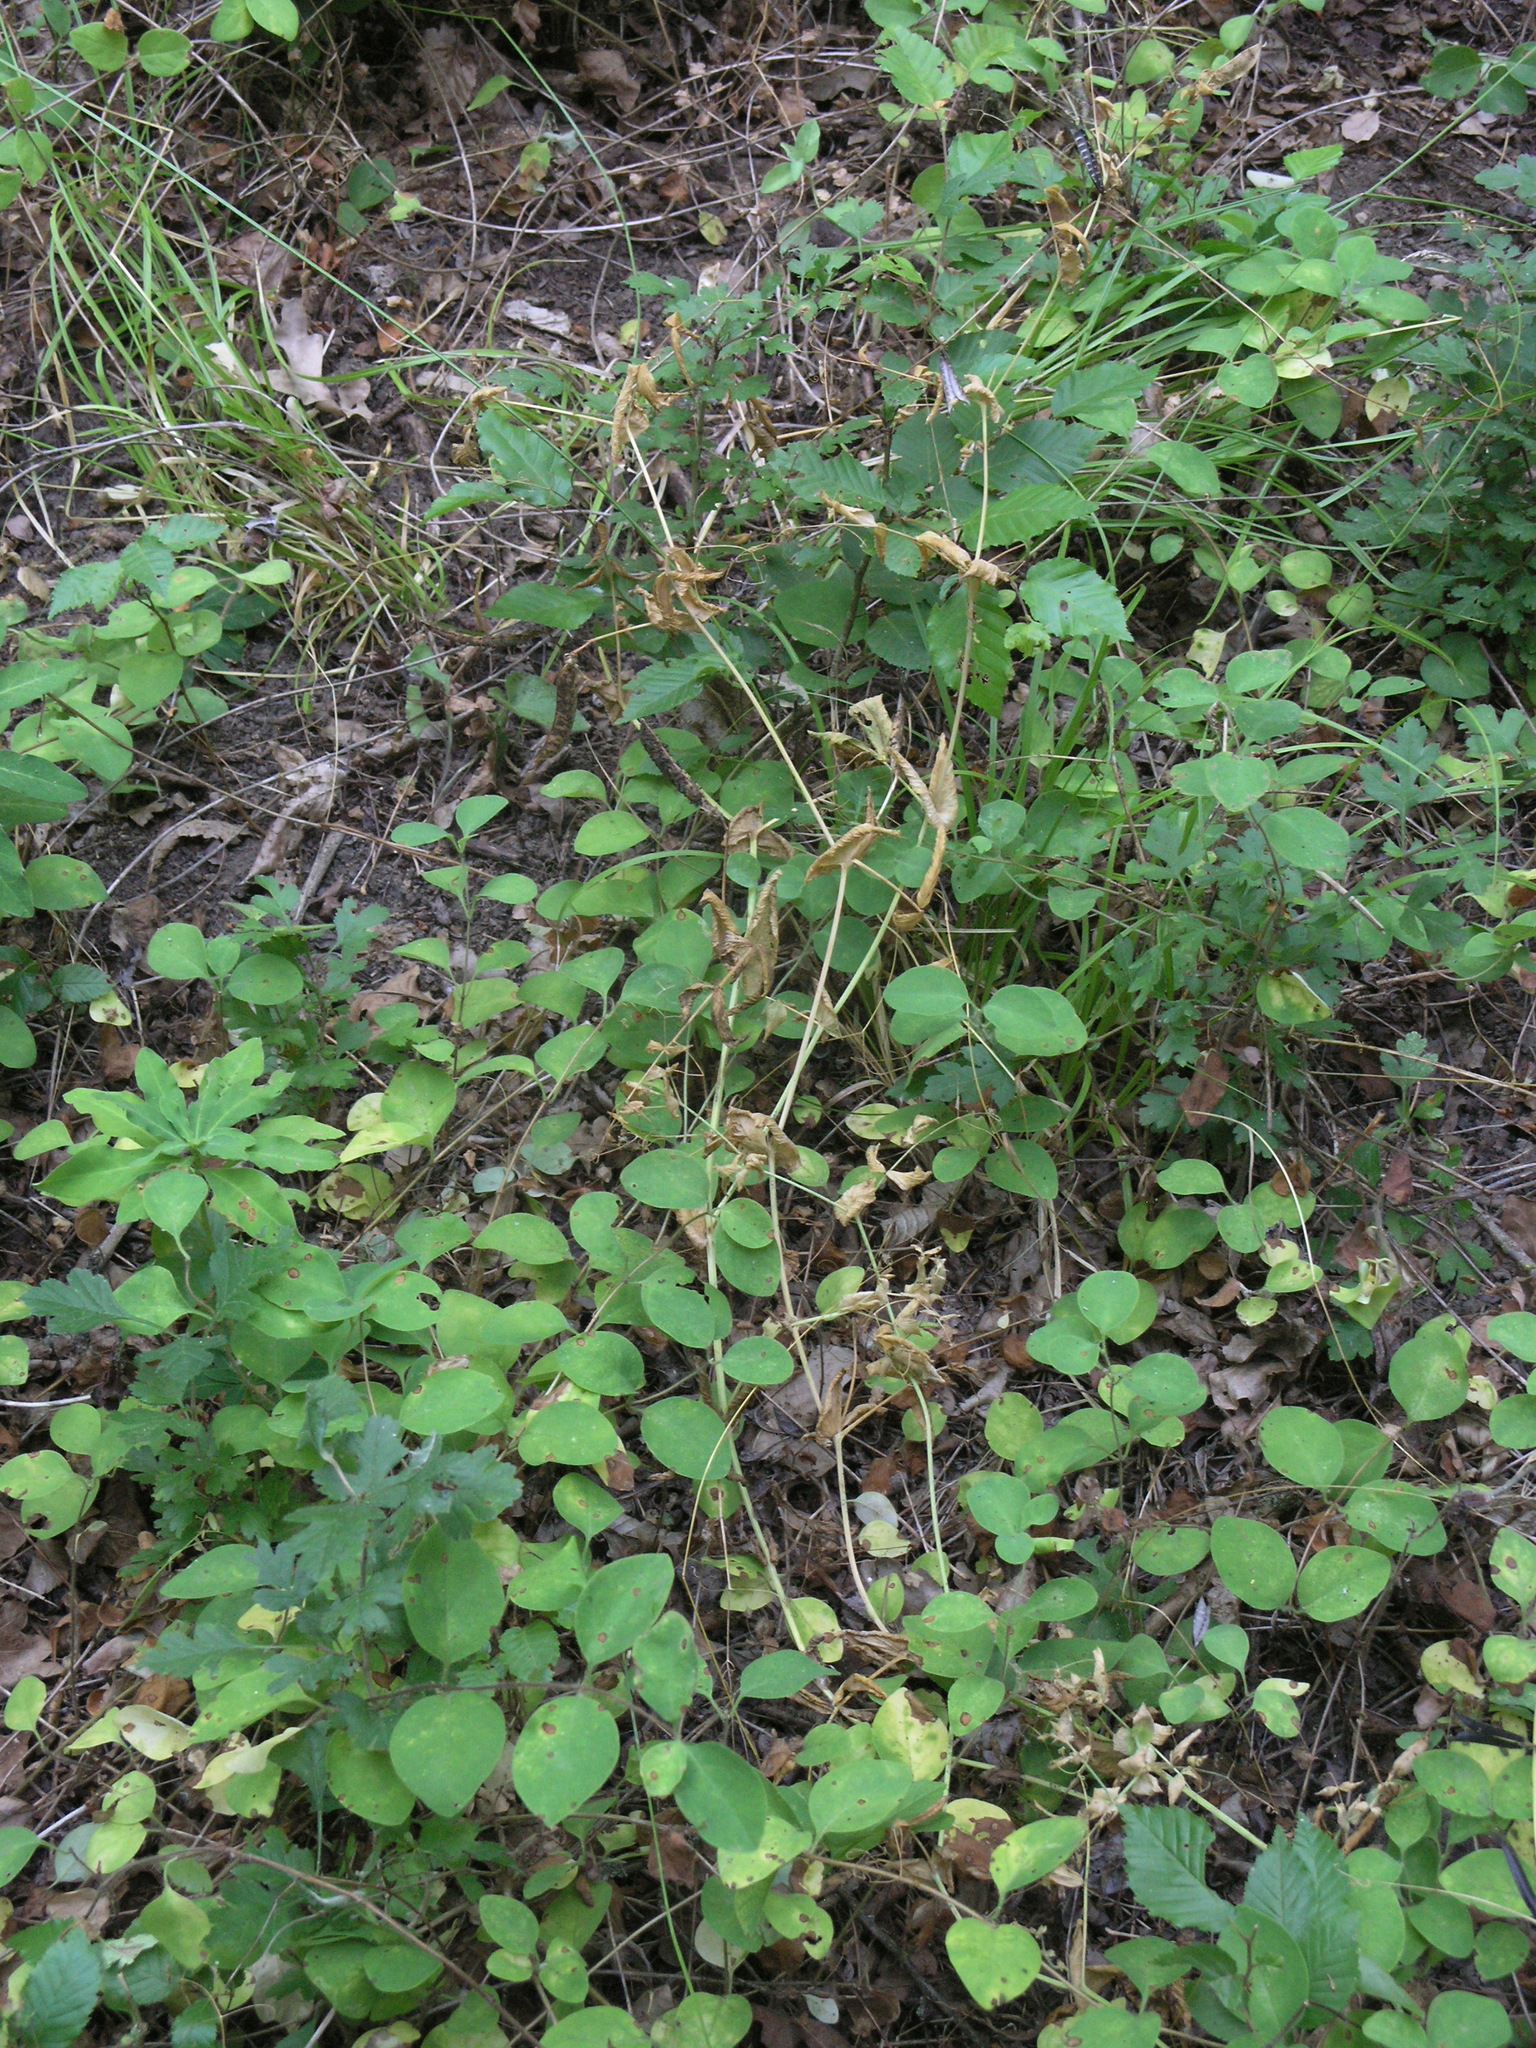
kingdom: Plantae
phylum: Tracheophyta
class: Magnoliopsida
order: Fabales
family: Fabaceae
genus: Lathyrus
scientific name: Lathyrus oleraceus
